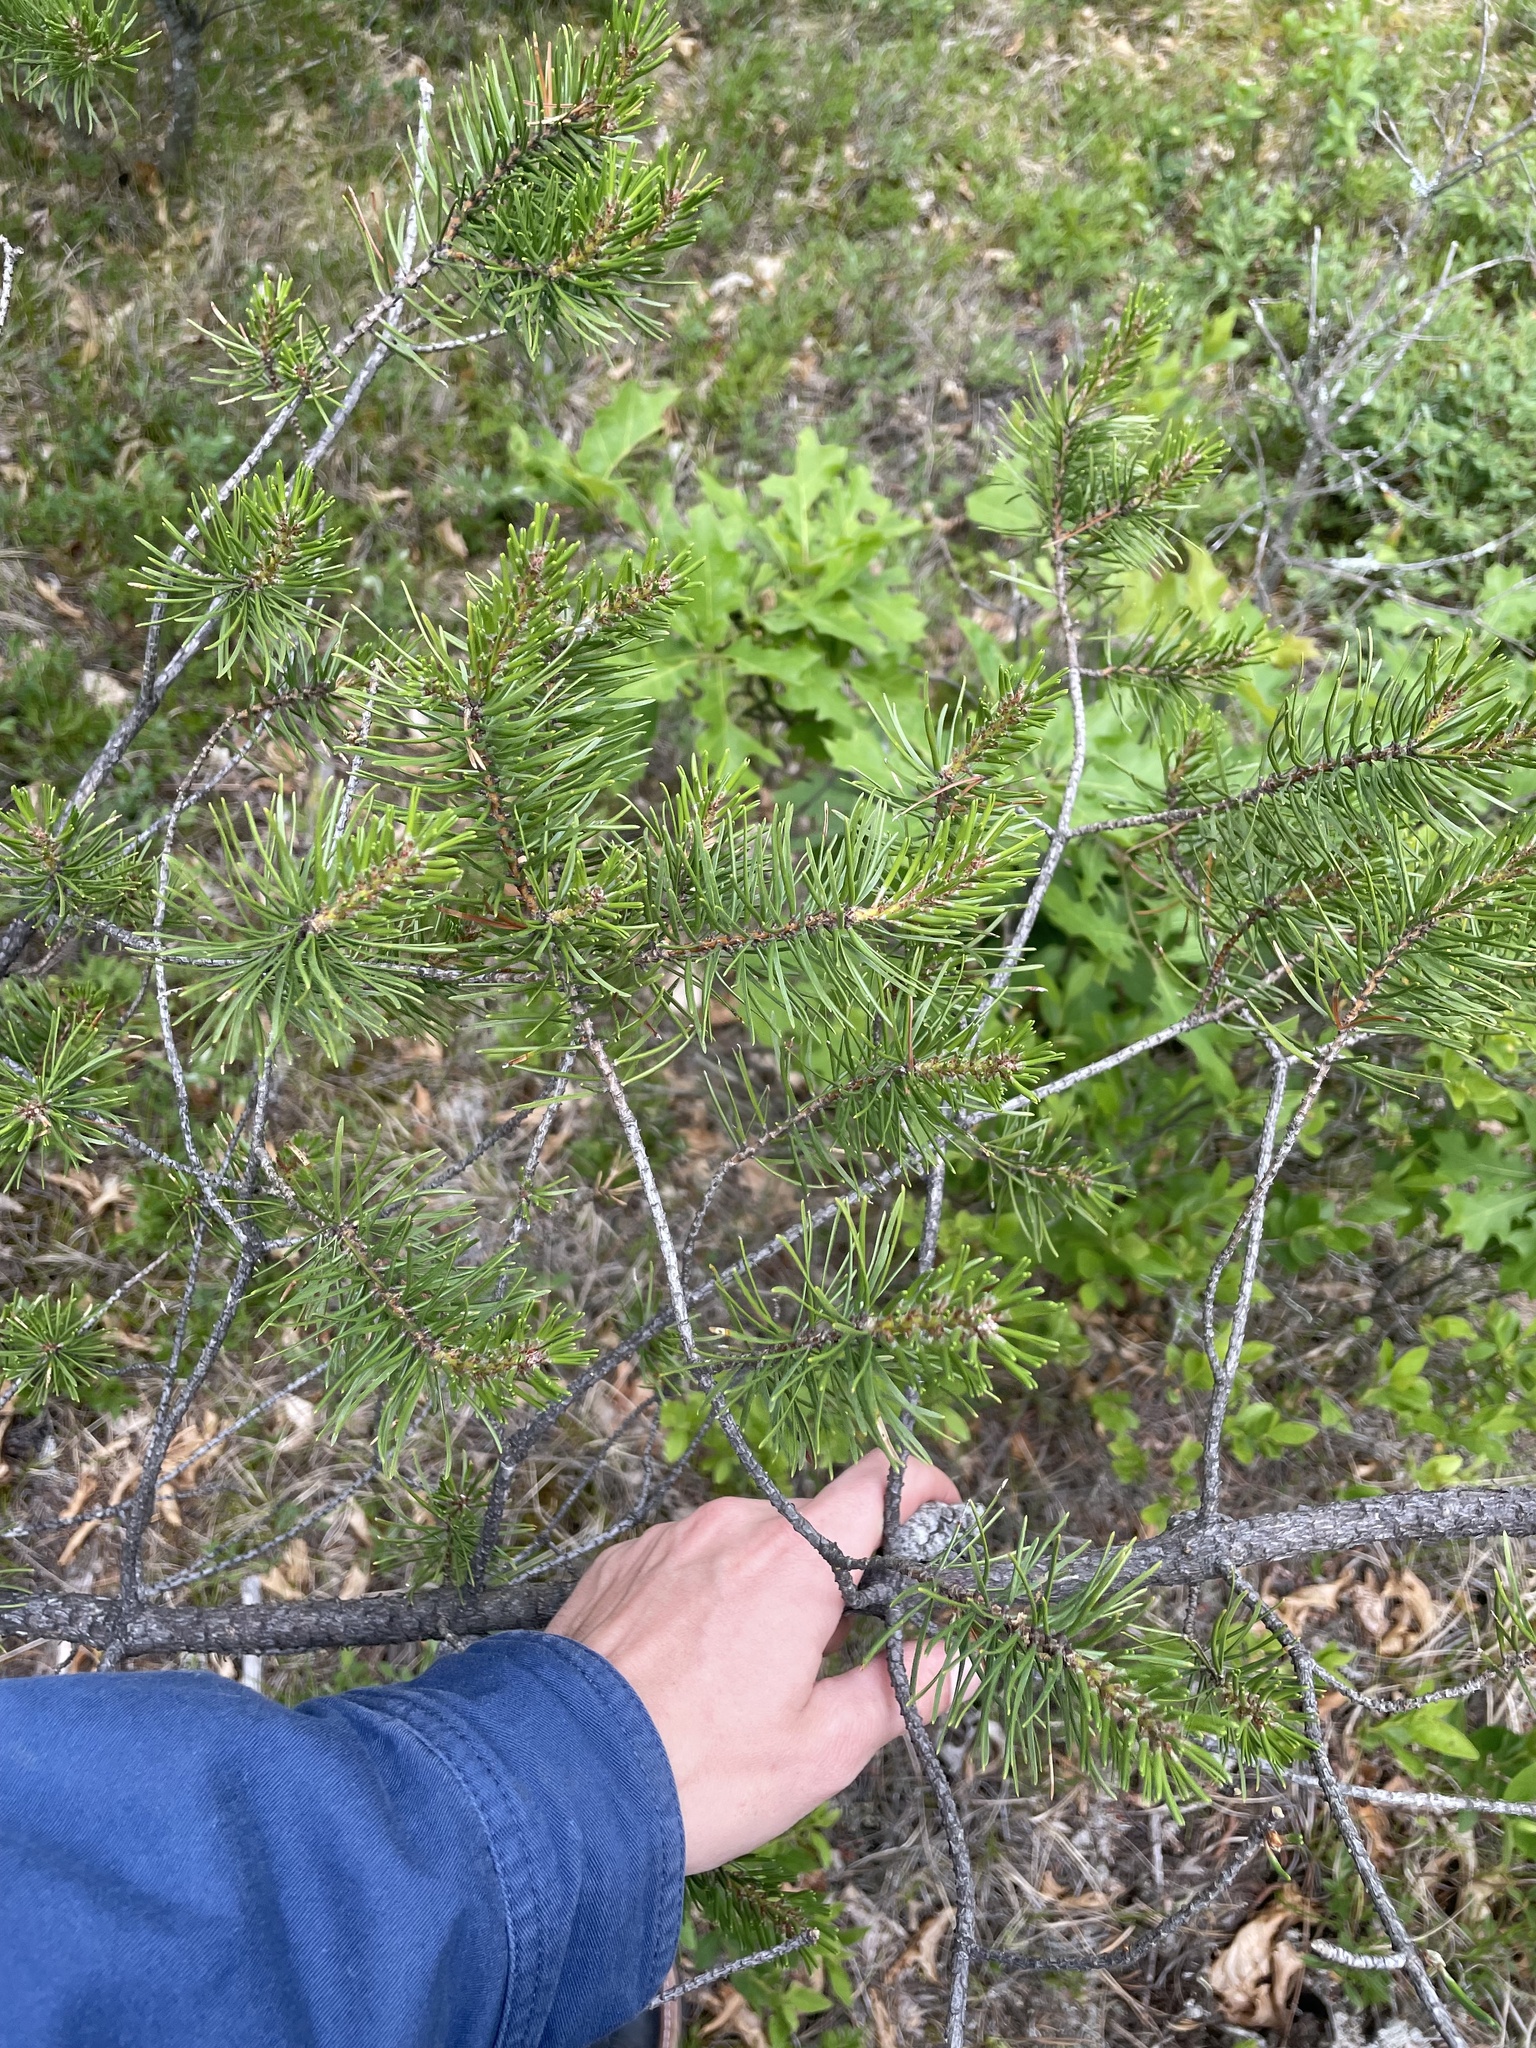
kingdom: Plantae
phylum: Tracheophyta
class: Pinopsida
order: Pinales
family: Pinaceae
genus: Pinus
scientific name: Pinus banksiana
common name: Jack pine
